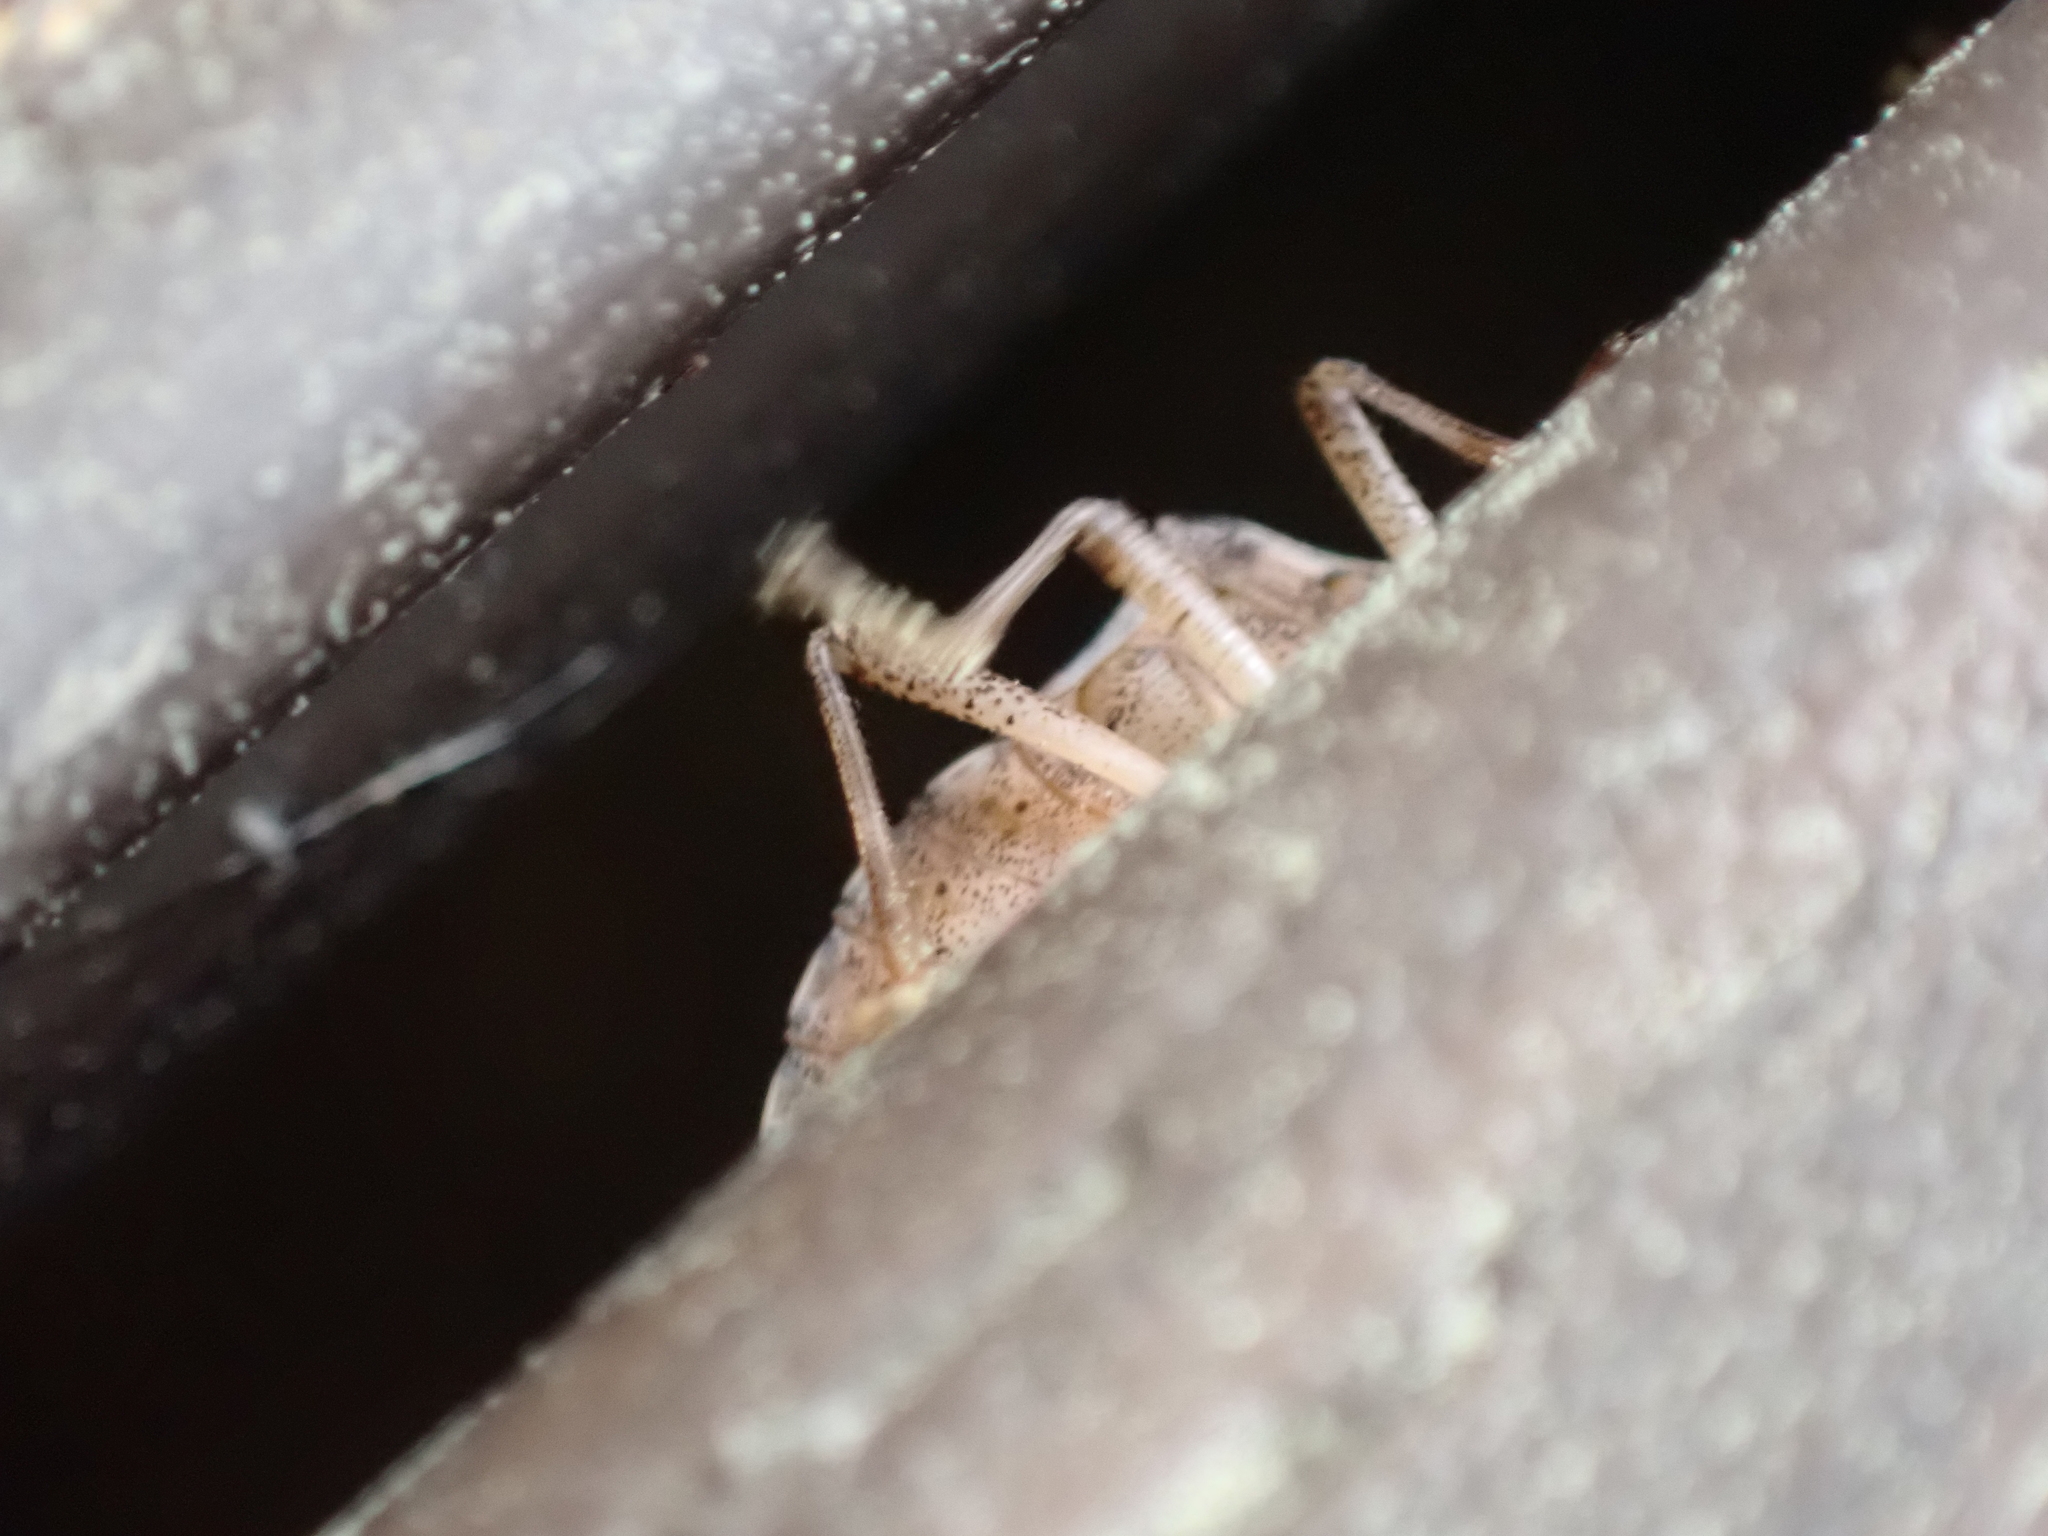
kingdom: Animalia
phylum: Arthropoda
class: Insecta
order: Hemiptera
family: Pentatomidae
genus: Halyomorpha
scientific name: Halyomorpha halys
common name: Brown marmorated stink bug
